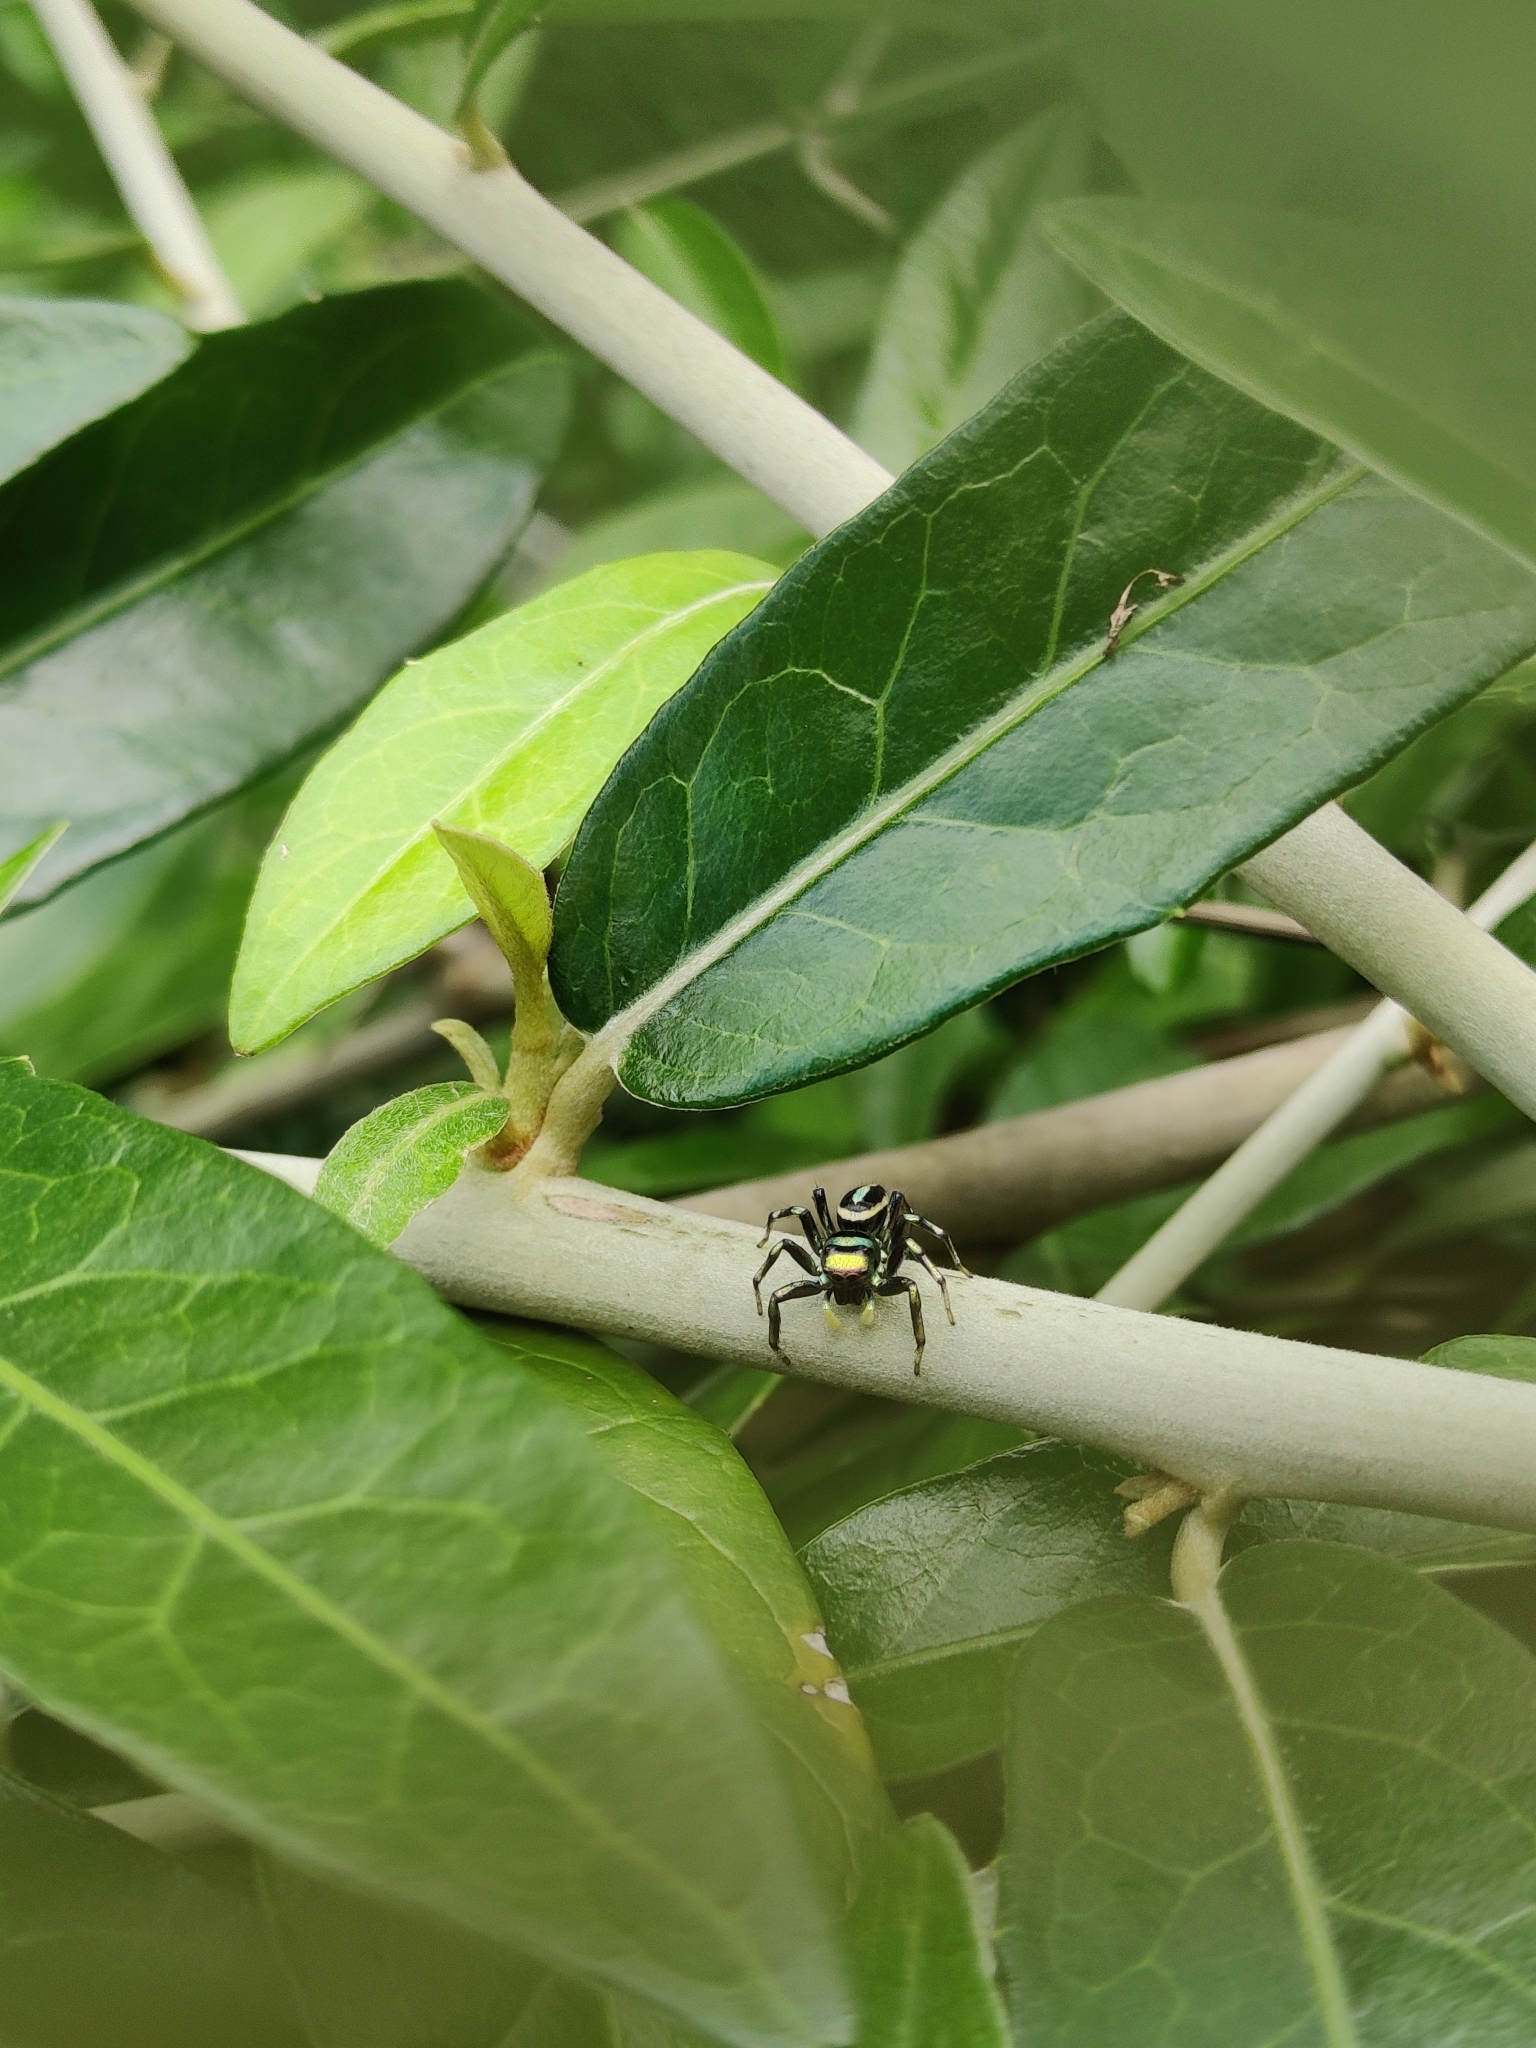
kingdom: Animalia
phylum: Arthropoda
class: Arachnida
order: Araneae
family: Salticidae
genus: Cosmophasis
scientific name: Cosmophasis thalassina
